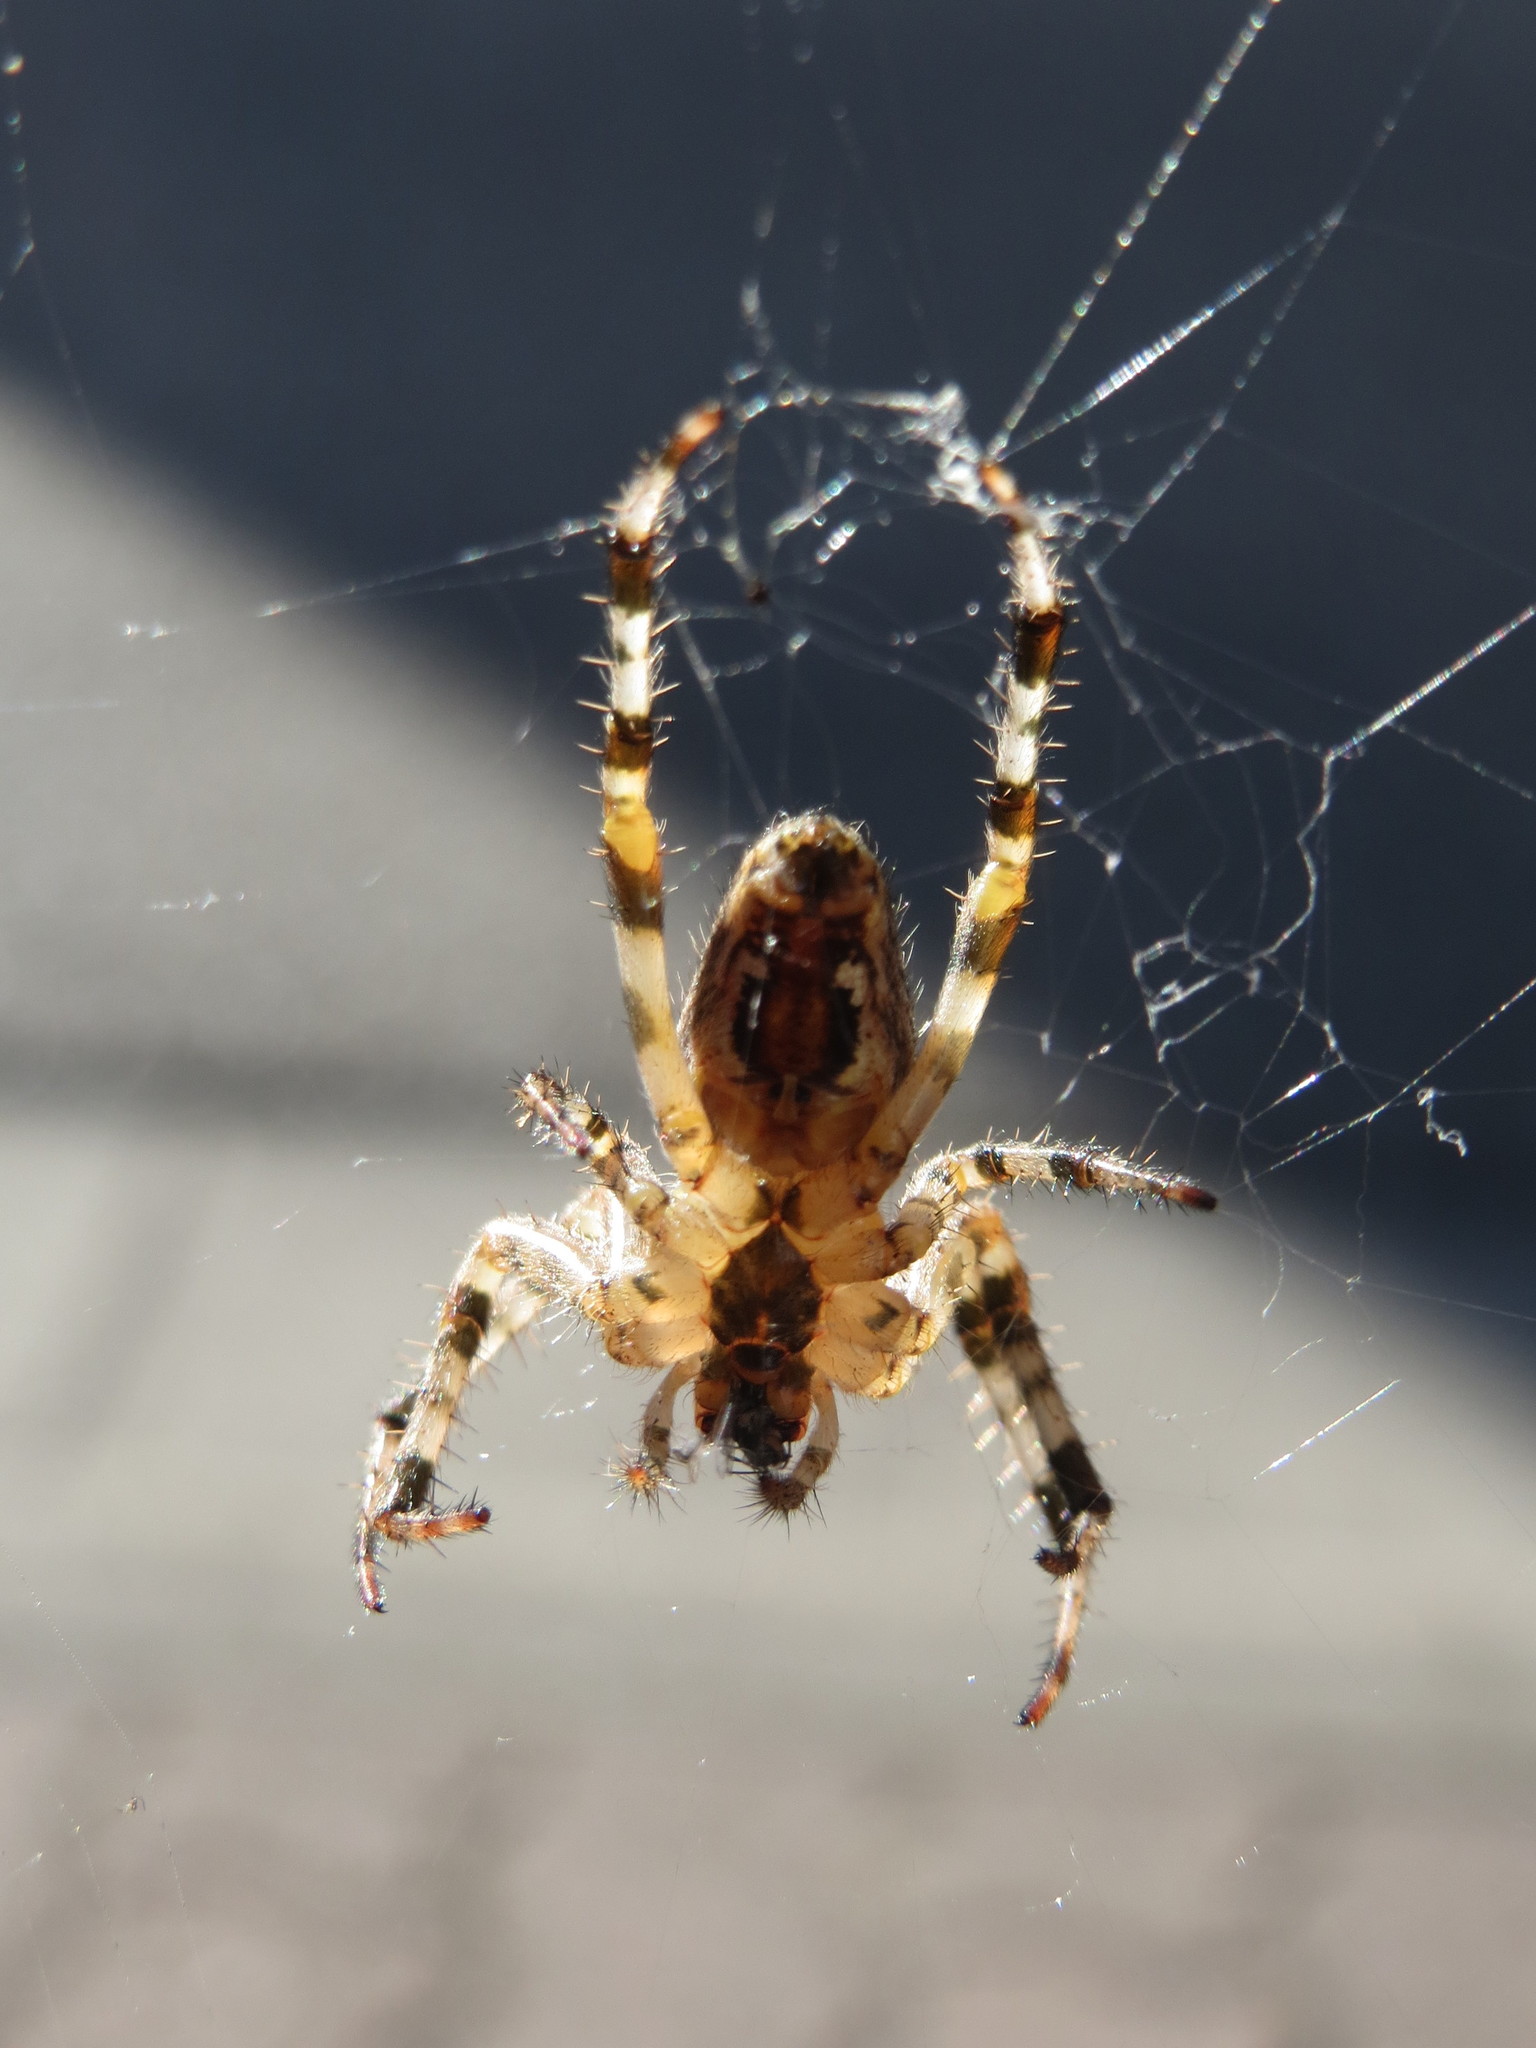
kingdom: Animalia
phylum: Arthropoda
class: Arachnida
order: Araneae
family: Araneidae
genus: Araneus
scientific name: Araneus diadematus
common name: Cross orbweaver
